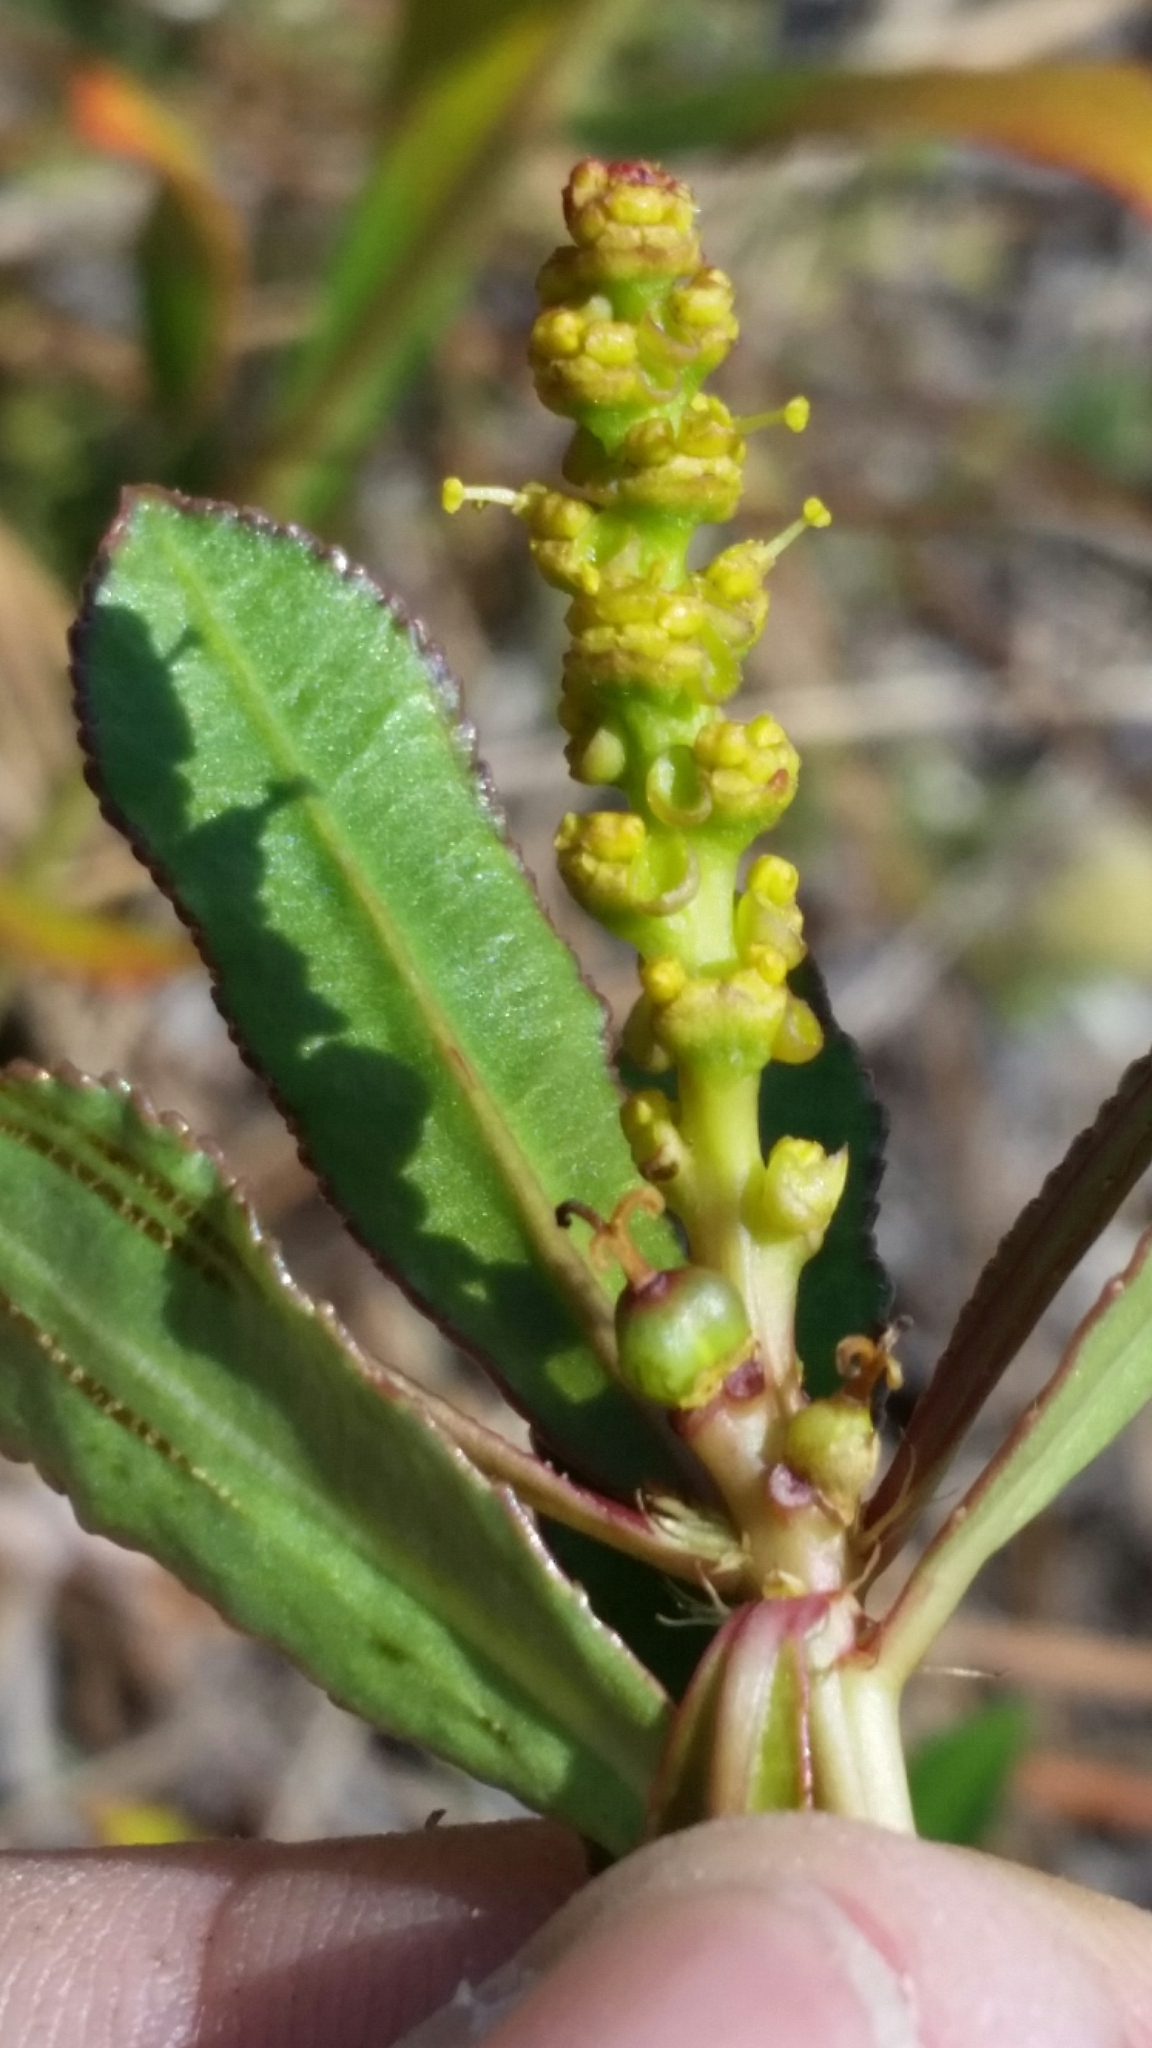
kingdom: Plantae
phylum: Tracheophyta
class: Magnoliopsida
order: Malpighiales
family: Euphorbiaceae
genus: Stillingia
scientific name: Stillingia sylvatica
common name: Queen's-delight
